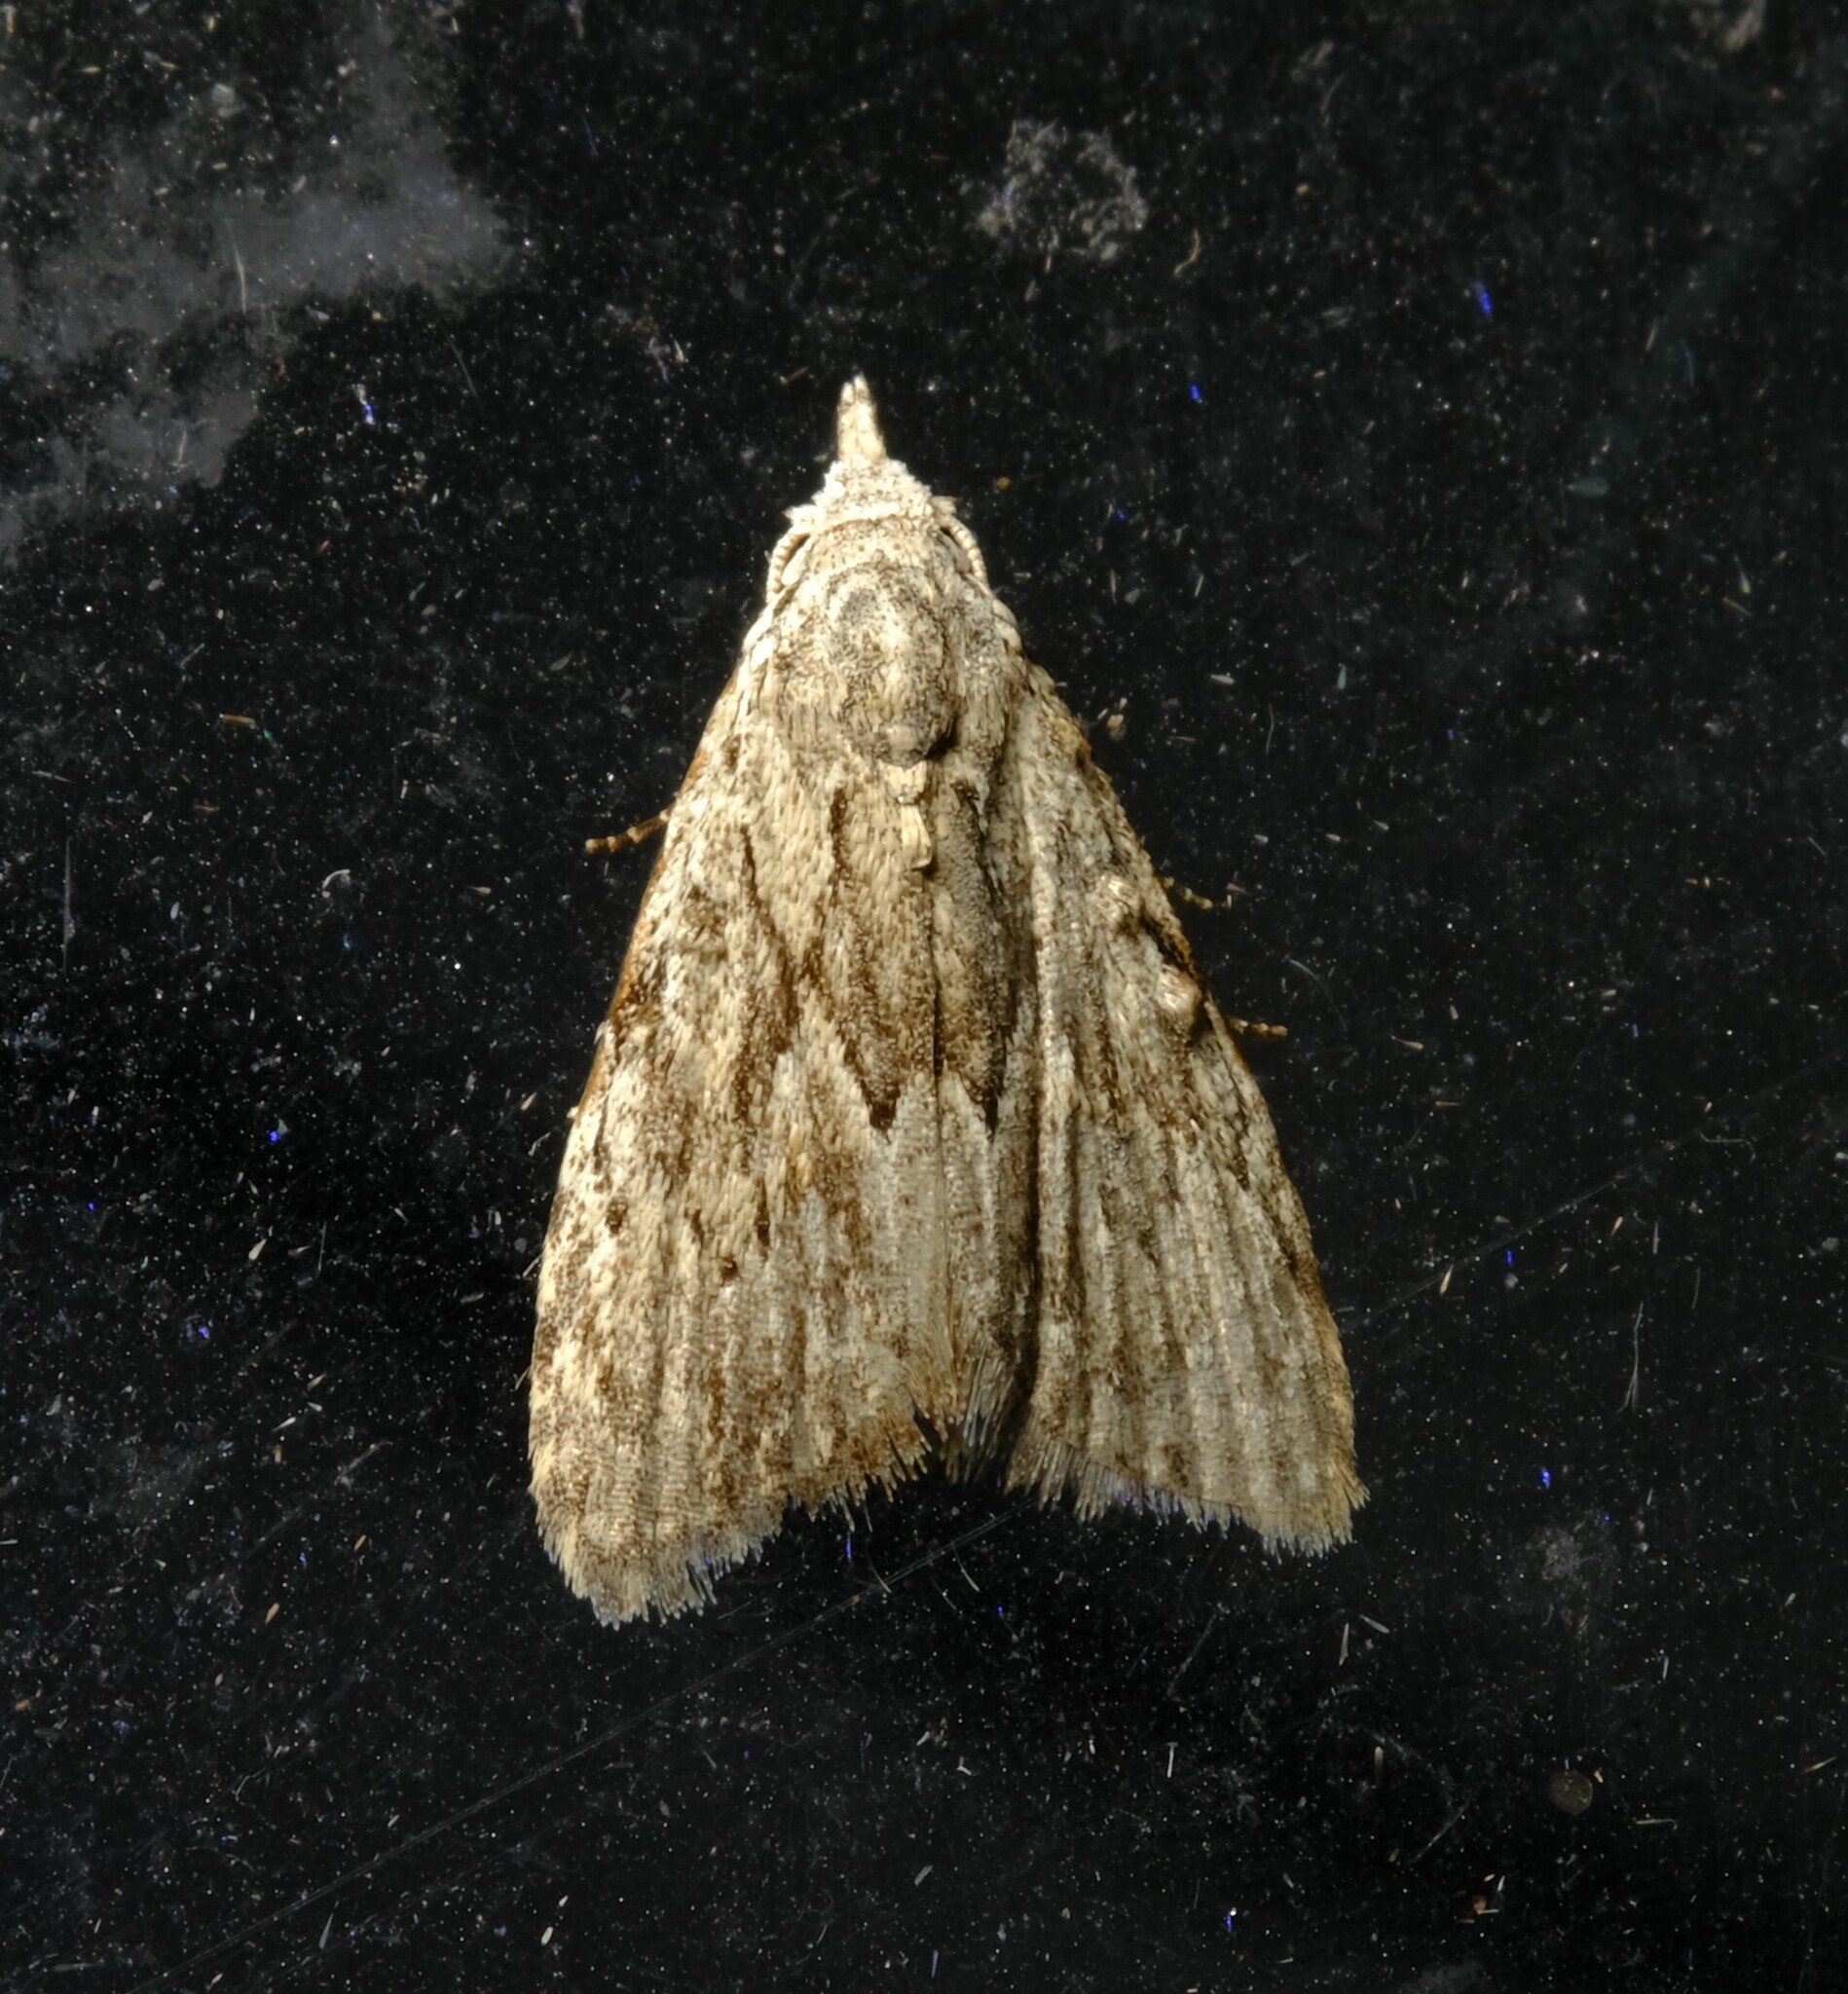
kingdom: Animalia
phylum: Arthropoda
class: Insecta
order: Lepidoptera
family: Nolidae
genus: Nola
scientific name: Nola crucigera
